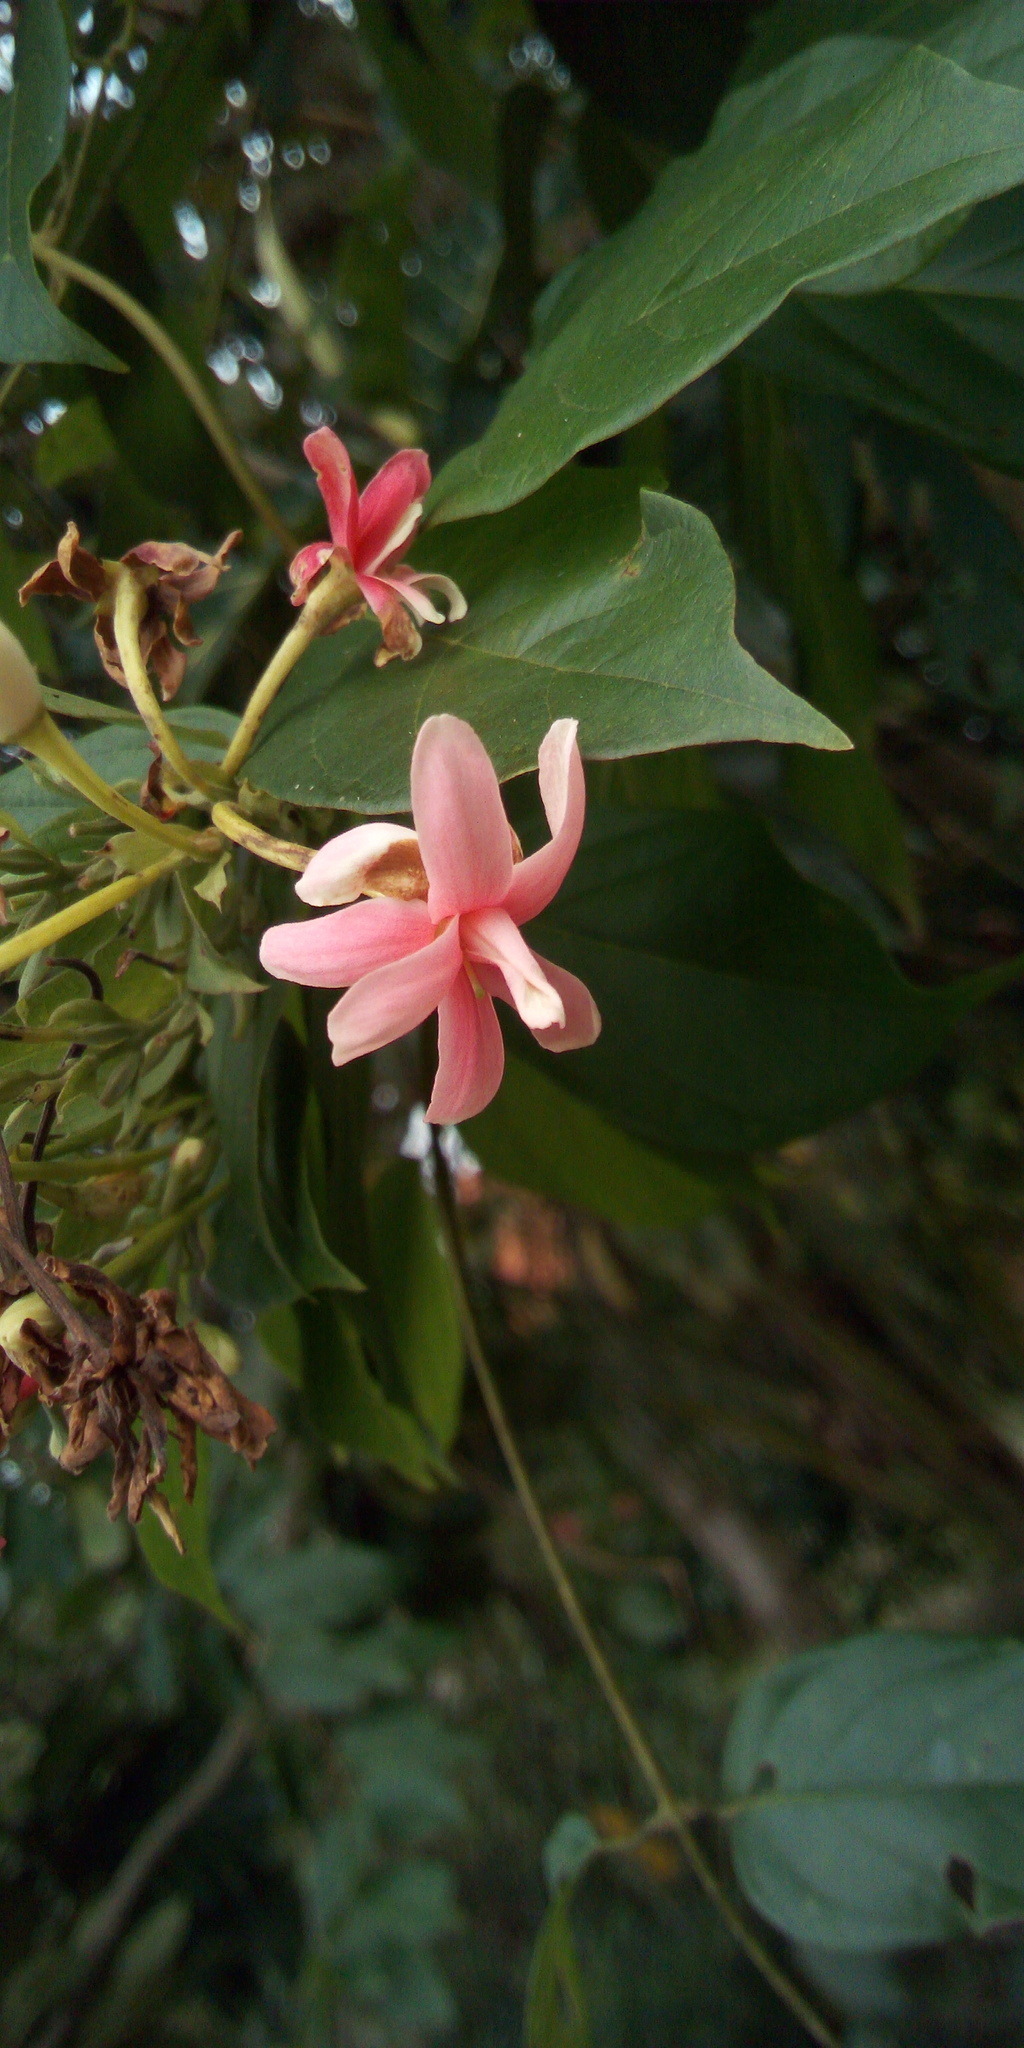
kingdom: Plantae
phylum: Tracheophyta
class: Magnoliopsida
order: Myrtales
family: Combretaceae
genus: Combretum
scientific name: Combretum indicum
